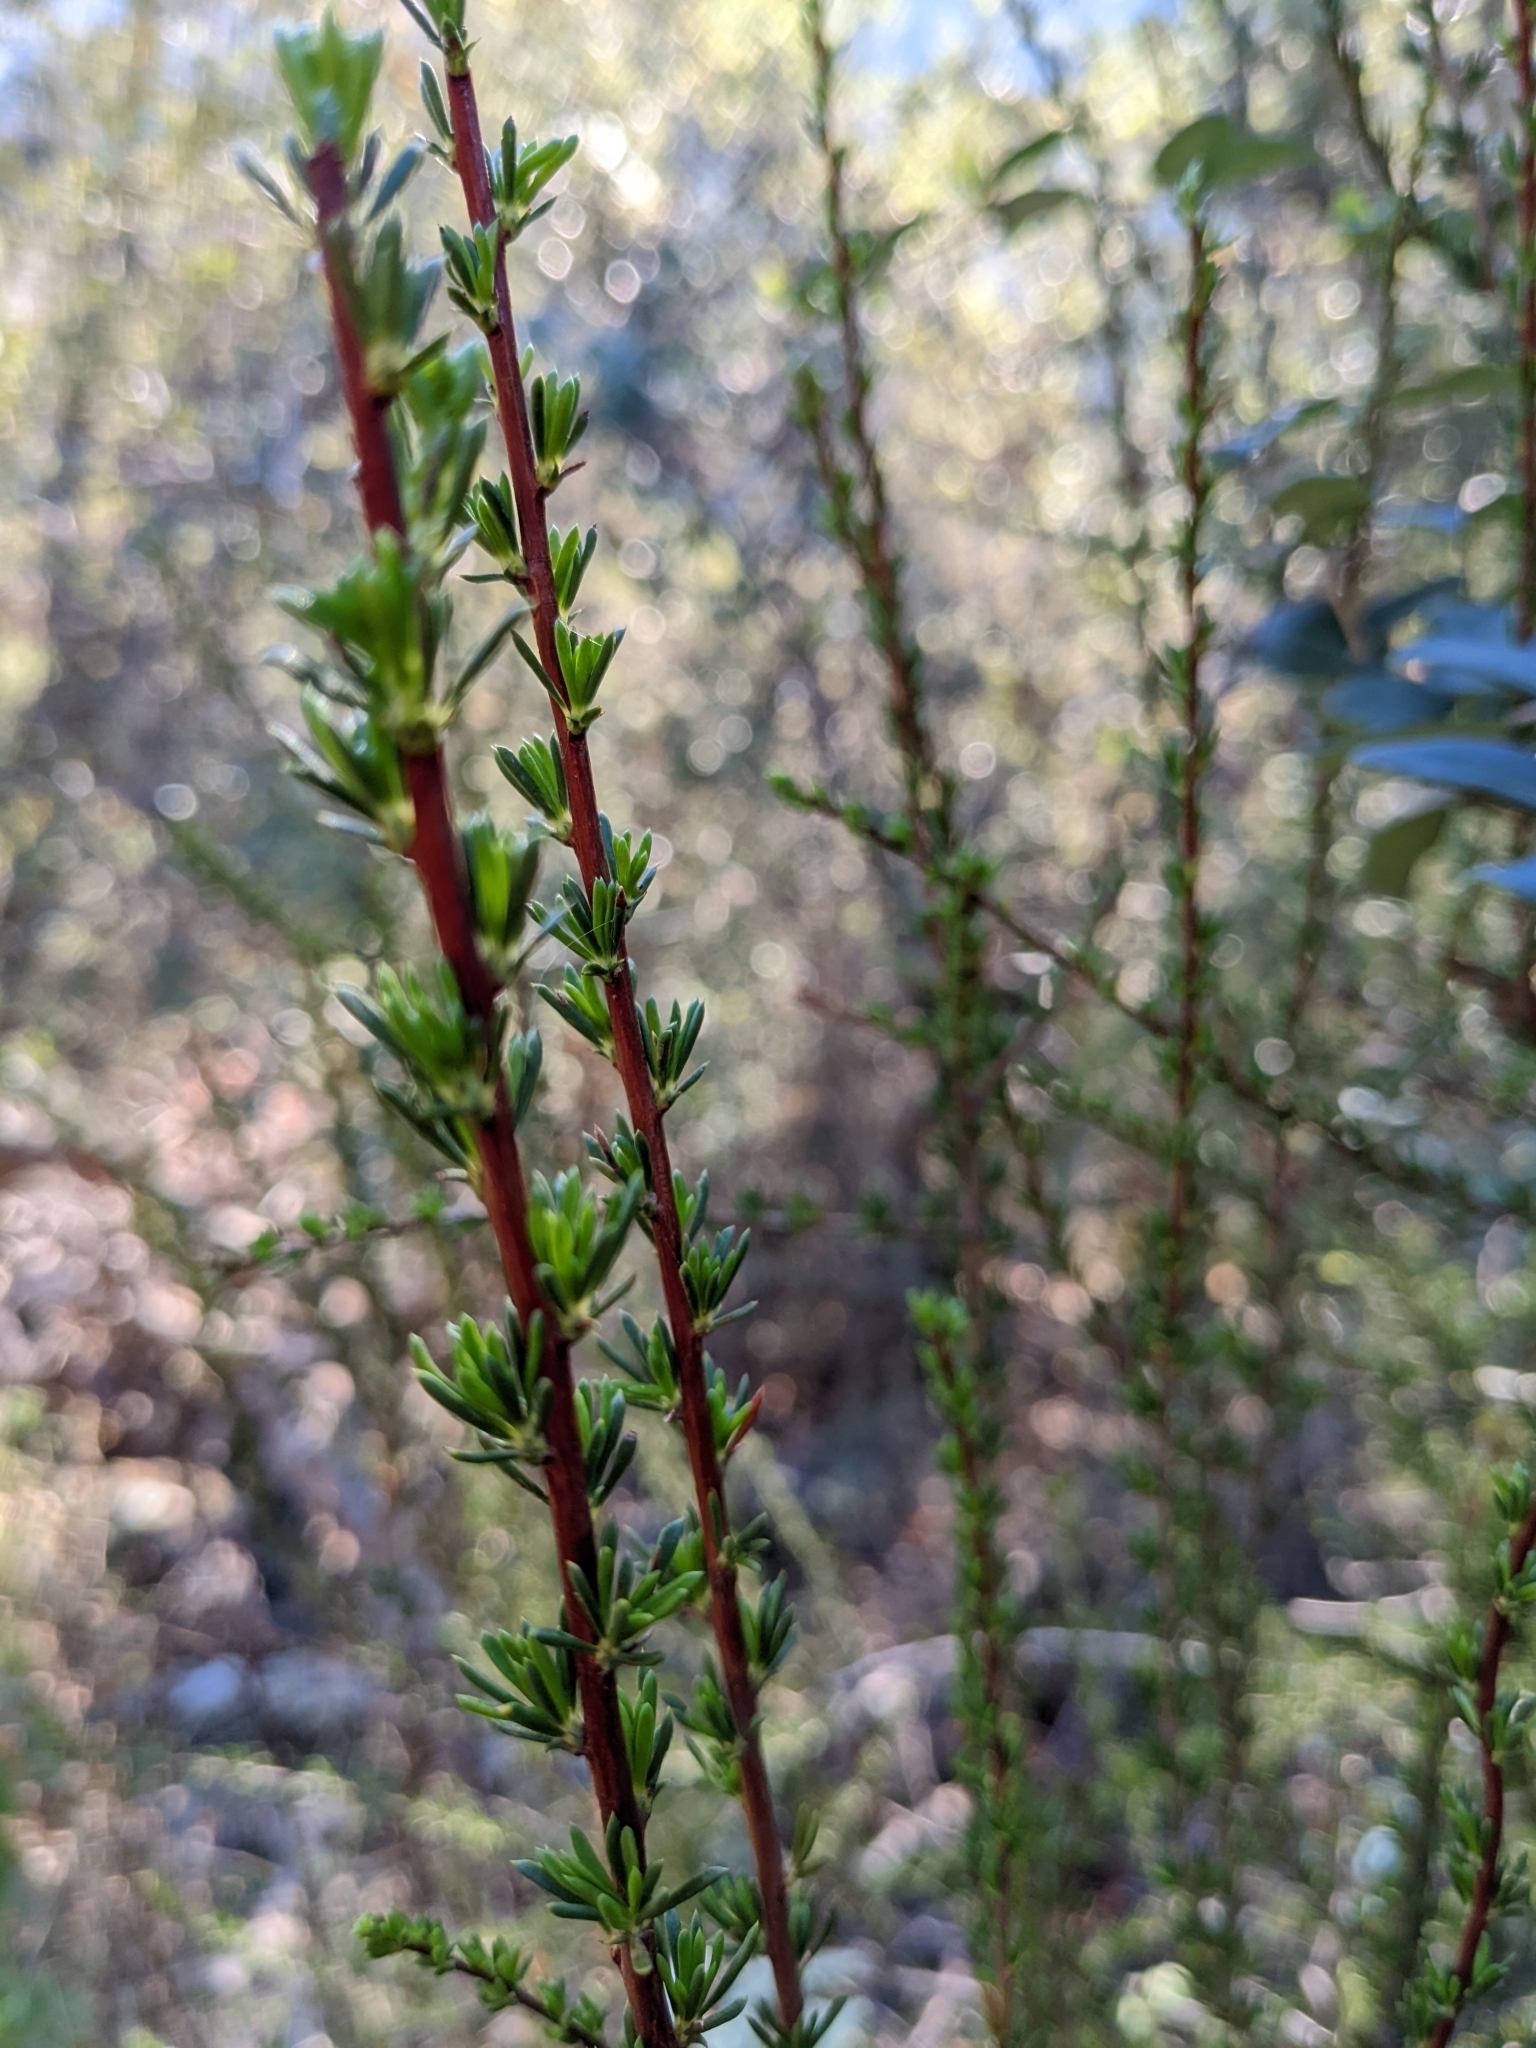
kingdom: Plantae
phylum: Tracheophyta
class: Magnoliopsida
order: Rosales
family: Rosaceae
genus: Adenostoma
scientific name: Adenostoma fasciculatum
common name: Chamise
